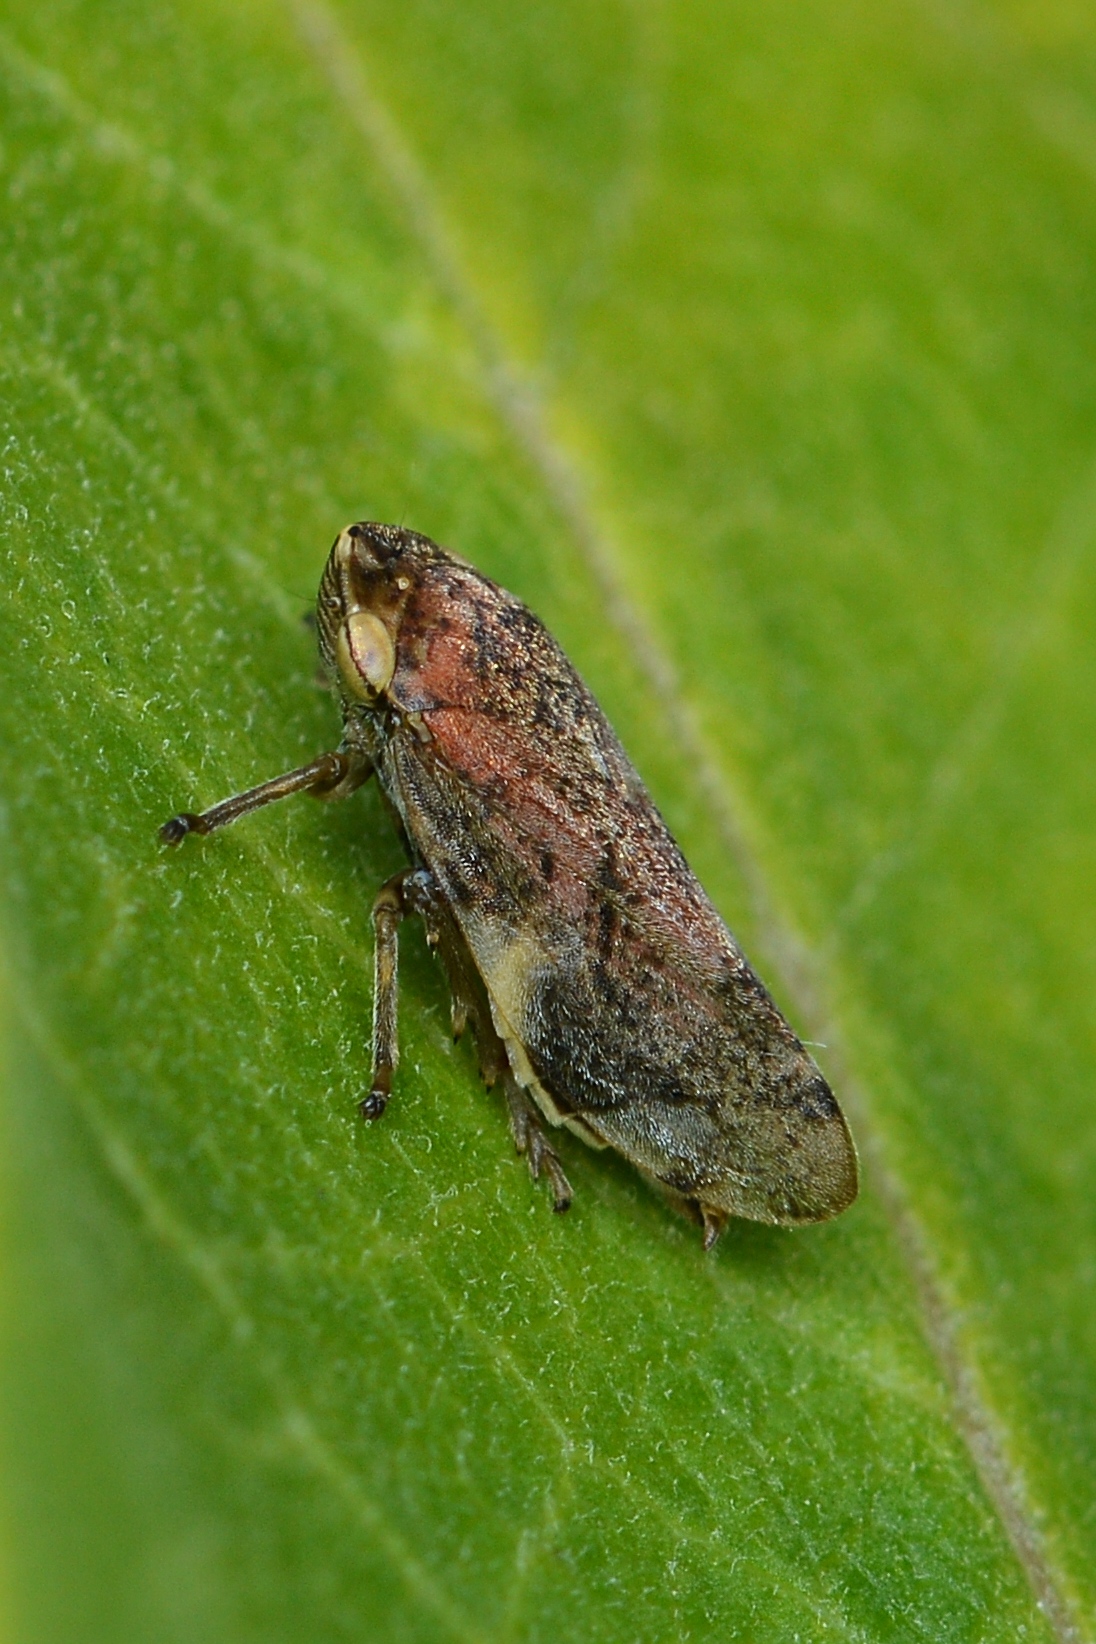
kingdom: Animalia
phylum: Arthropoda
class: Insecta
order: Hemiptera
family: Aphrophoridae
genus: Philaenus
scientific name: Philaenus spumarius
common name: Meadow spittlebug
